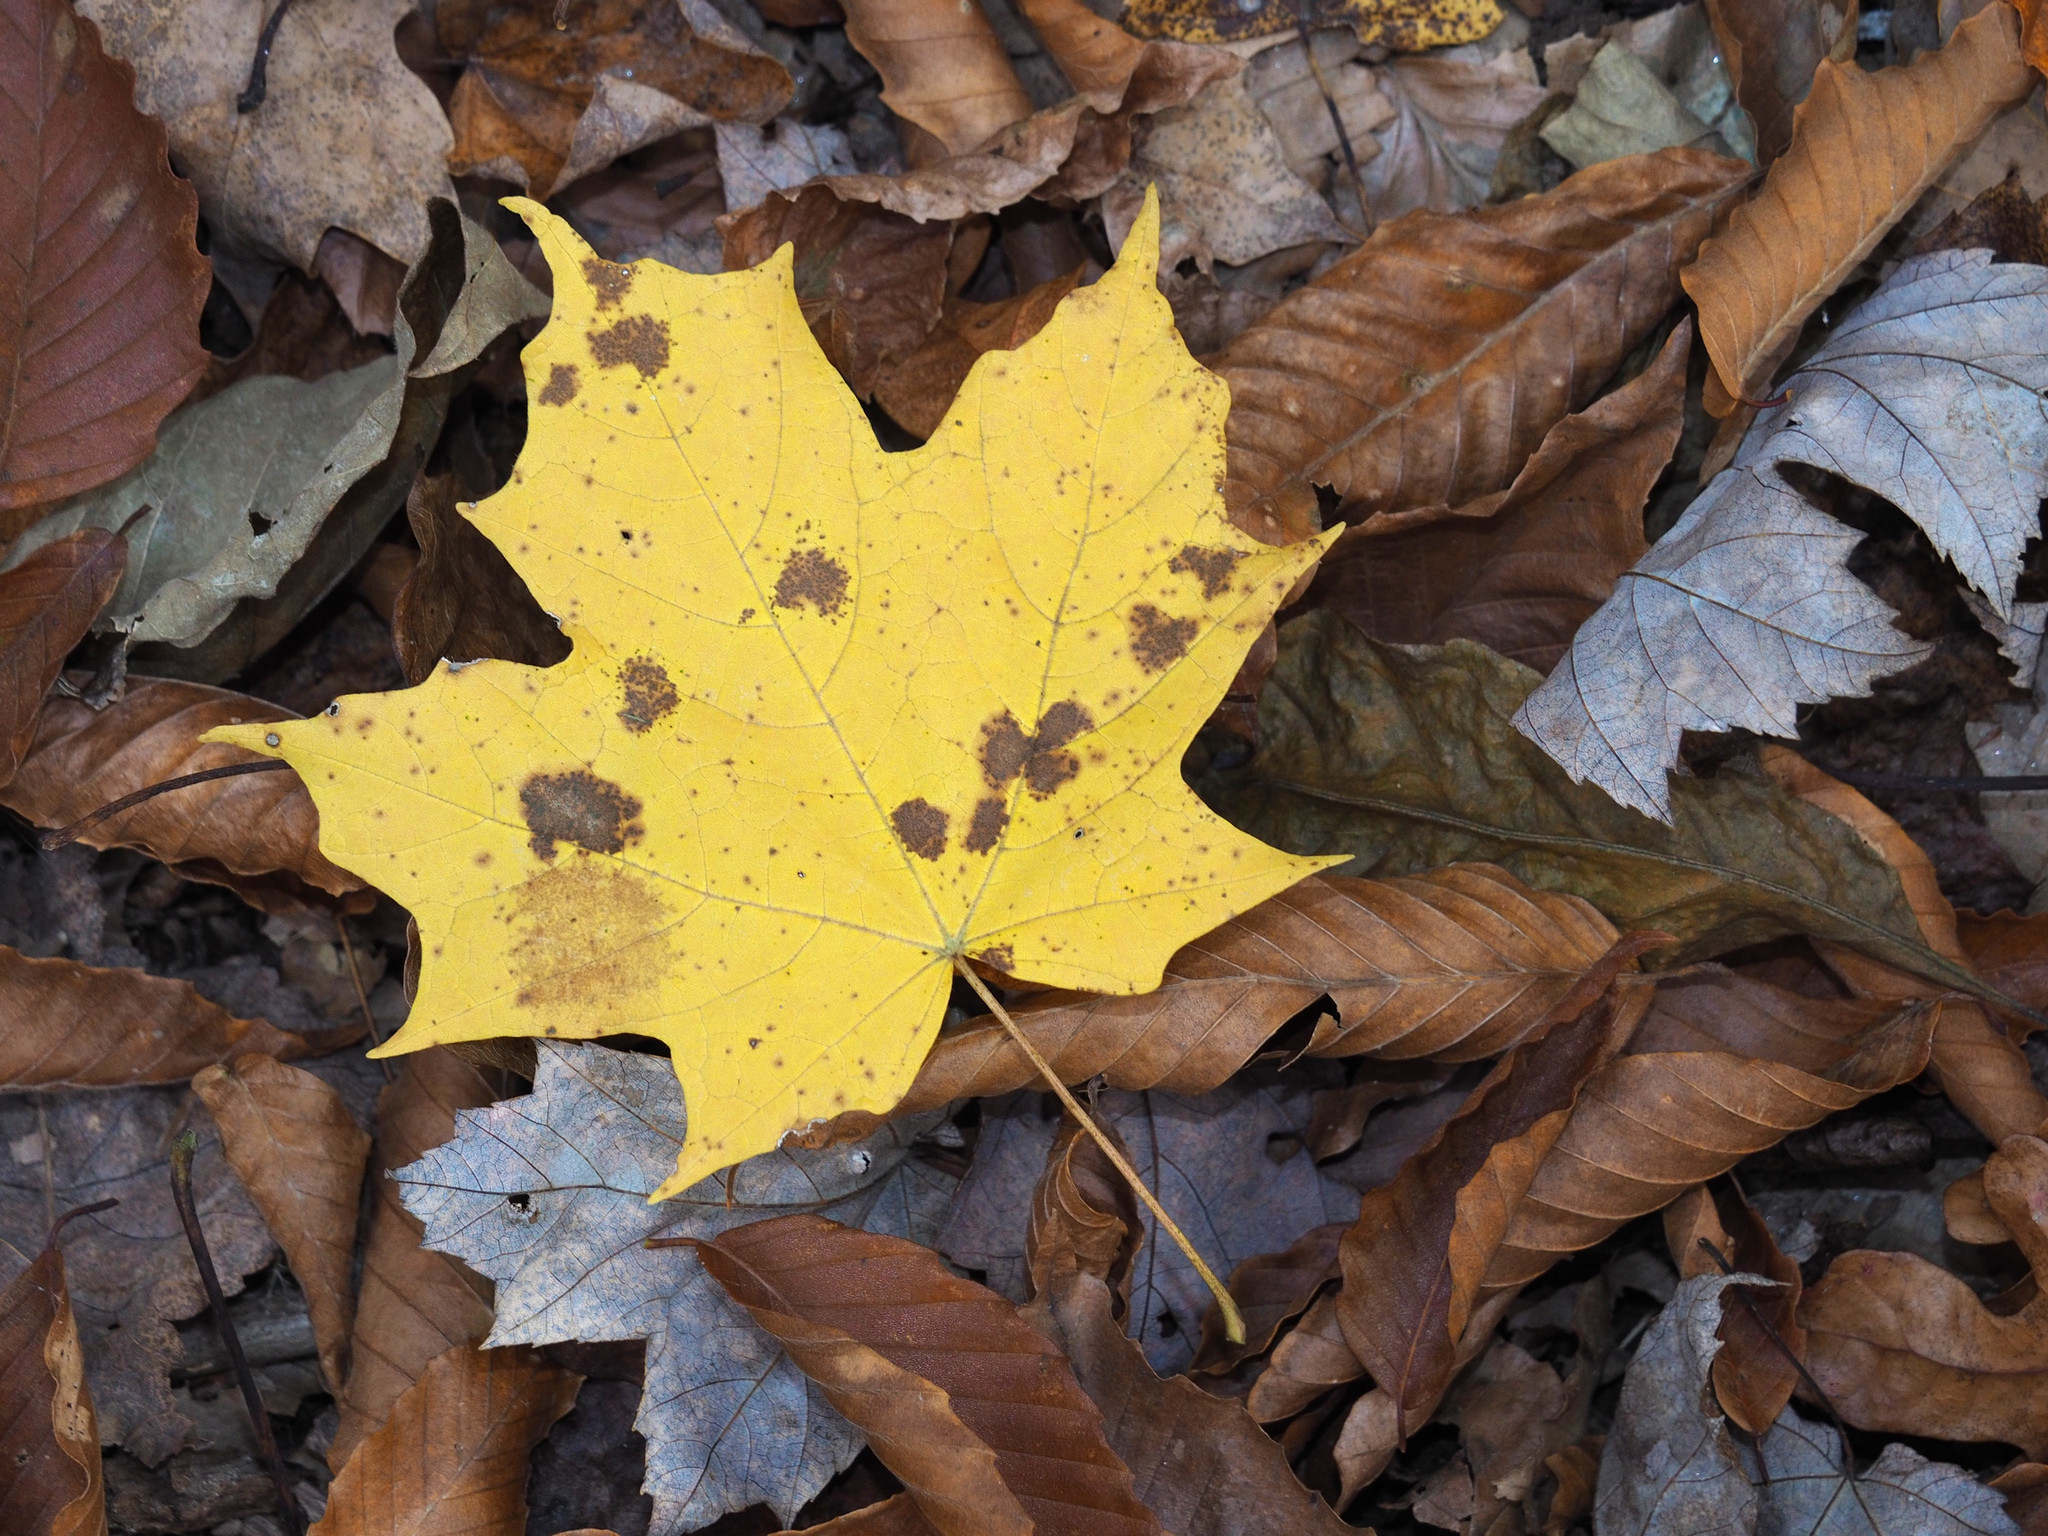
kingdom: Plantae
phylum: Tracheophyta
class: Magnoliopsida
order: Sapindales
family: Sapindaceae
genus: Acer
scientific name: Acer saccharum
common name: Sugar maple
